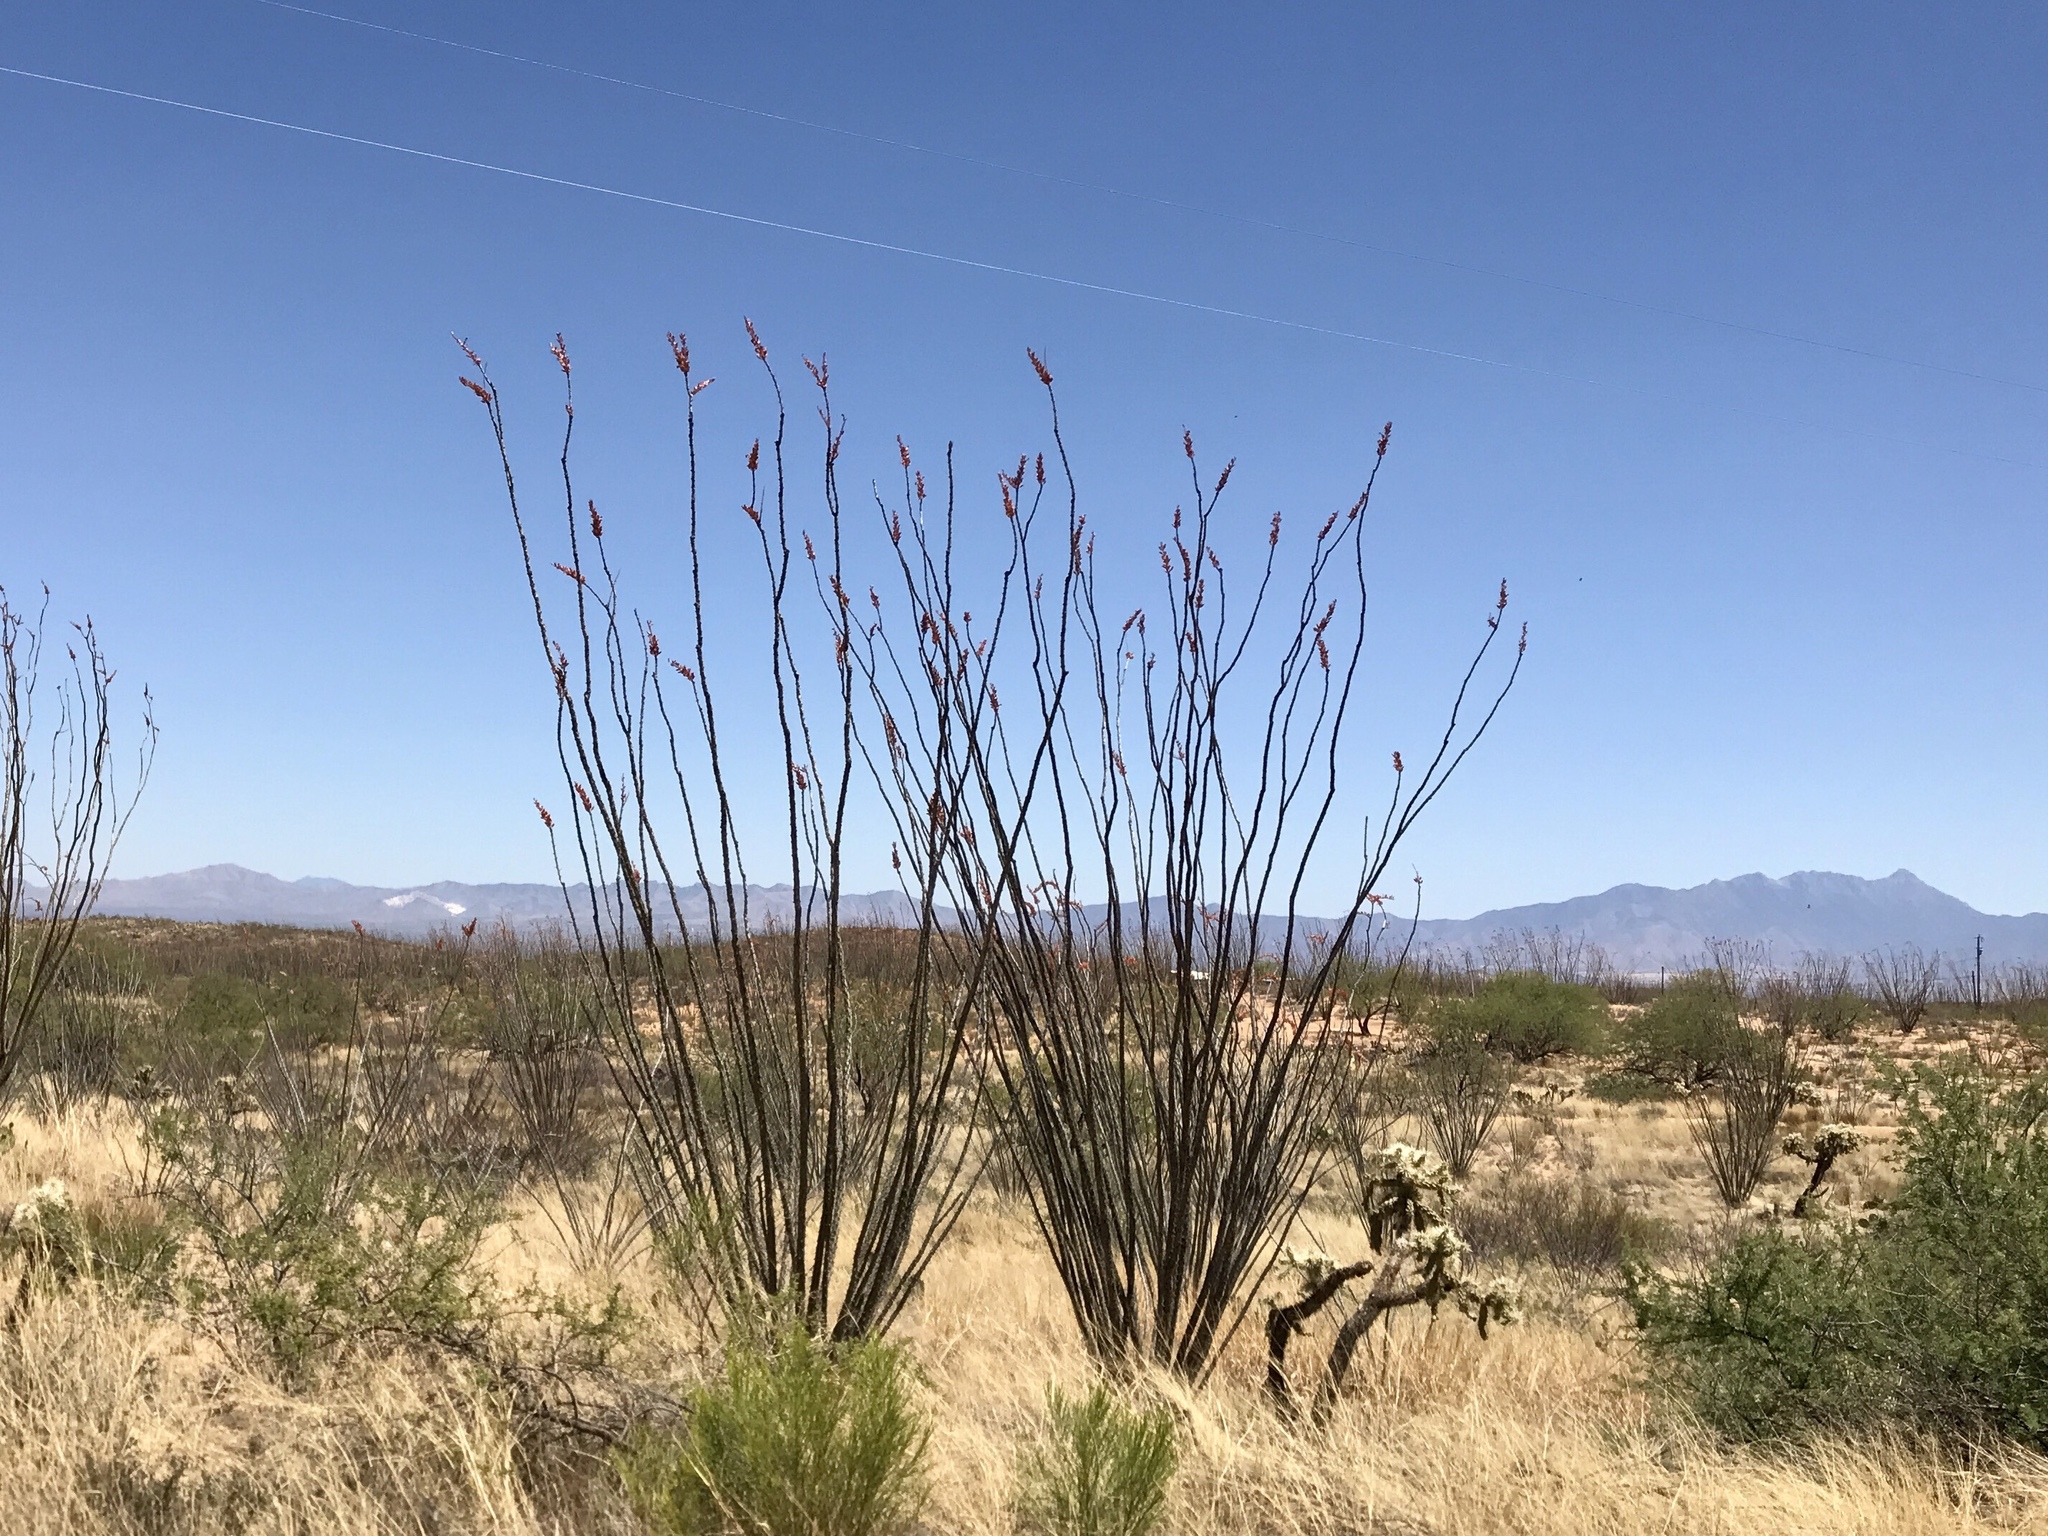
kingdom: Plantae
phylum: Tracheophyta
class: Magnoliopsida
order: Ericales
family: Fouquieriaceae
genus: Fouquieria
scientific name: Fouquieria splendens
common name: Vine-cactus
